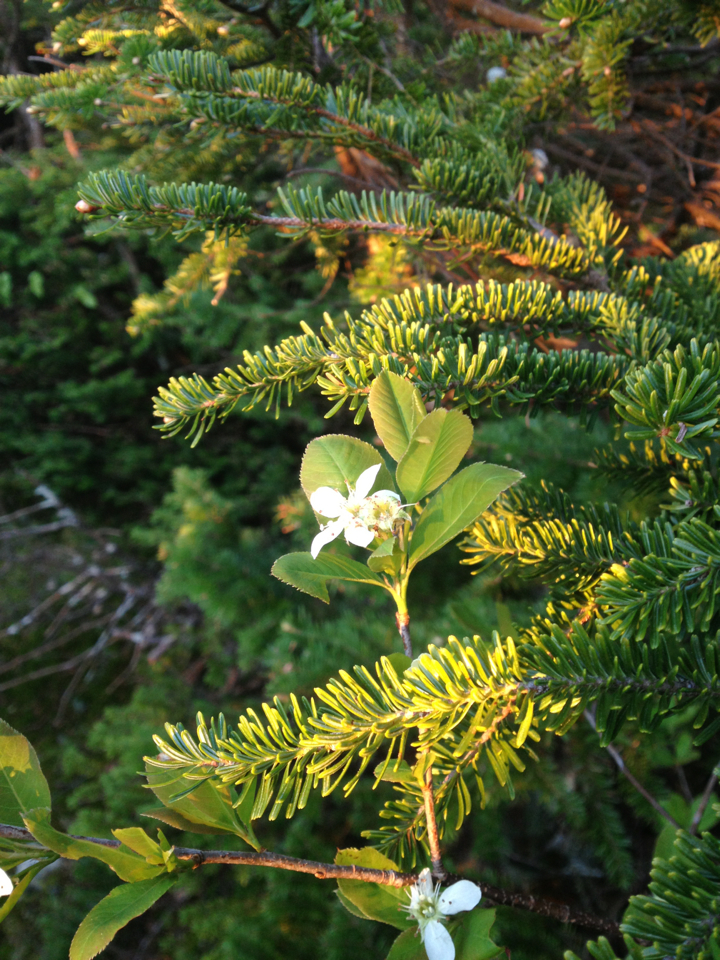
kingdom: Plantae
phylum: Tracheophyta
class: Magnoliopsida
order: Rosales
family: Rosaceae
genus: Amelanchier
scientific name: Amelanchier bartramiana
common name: Mountain serviceberry
